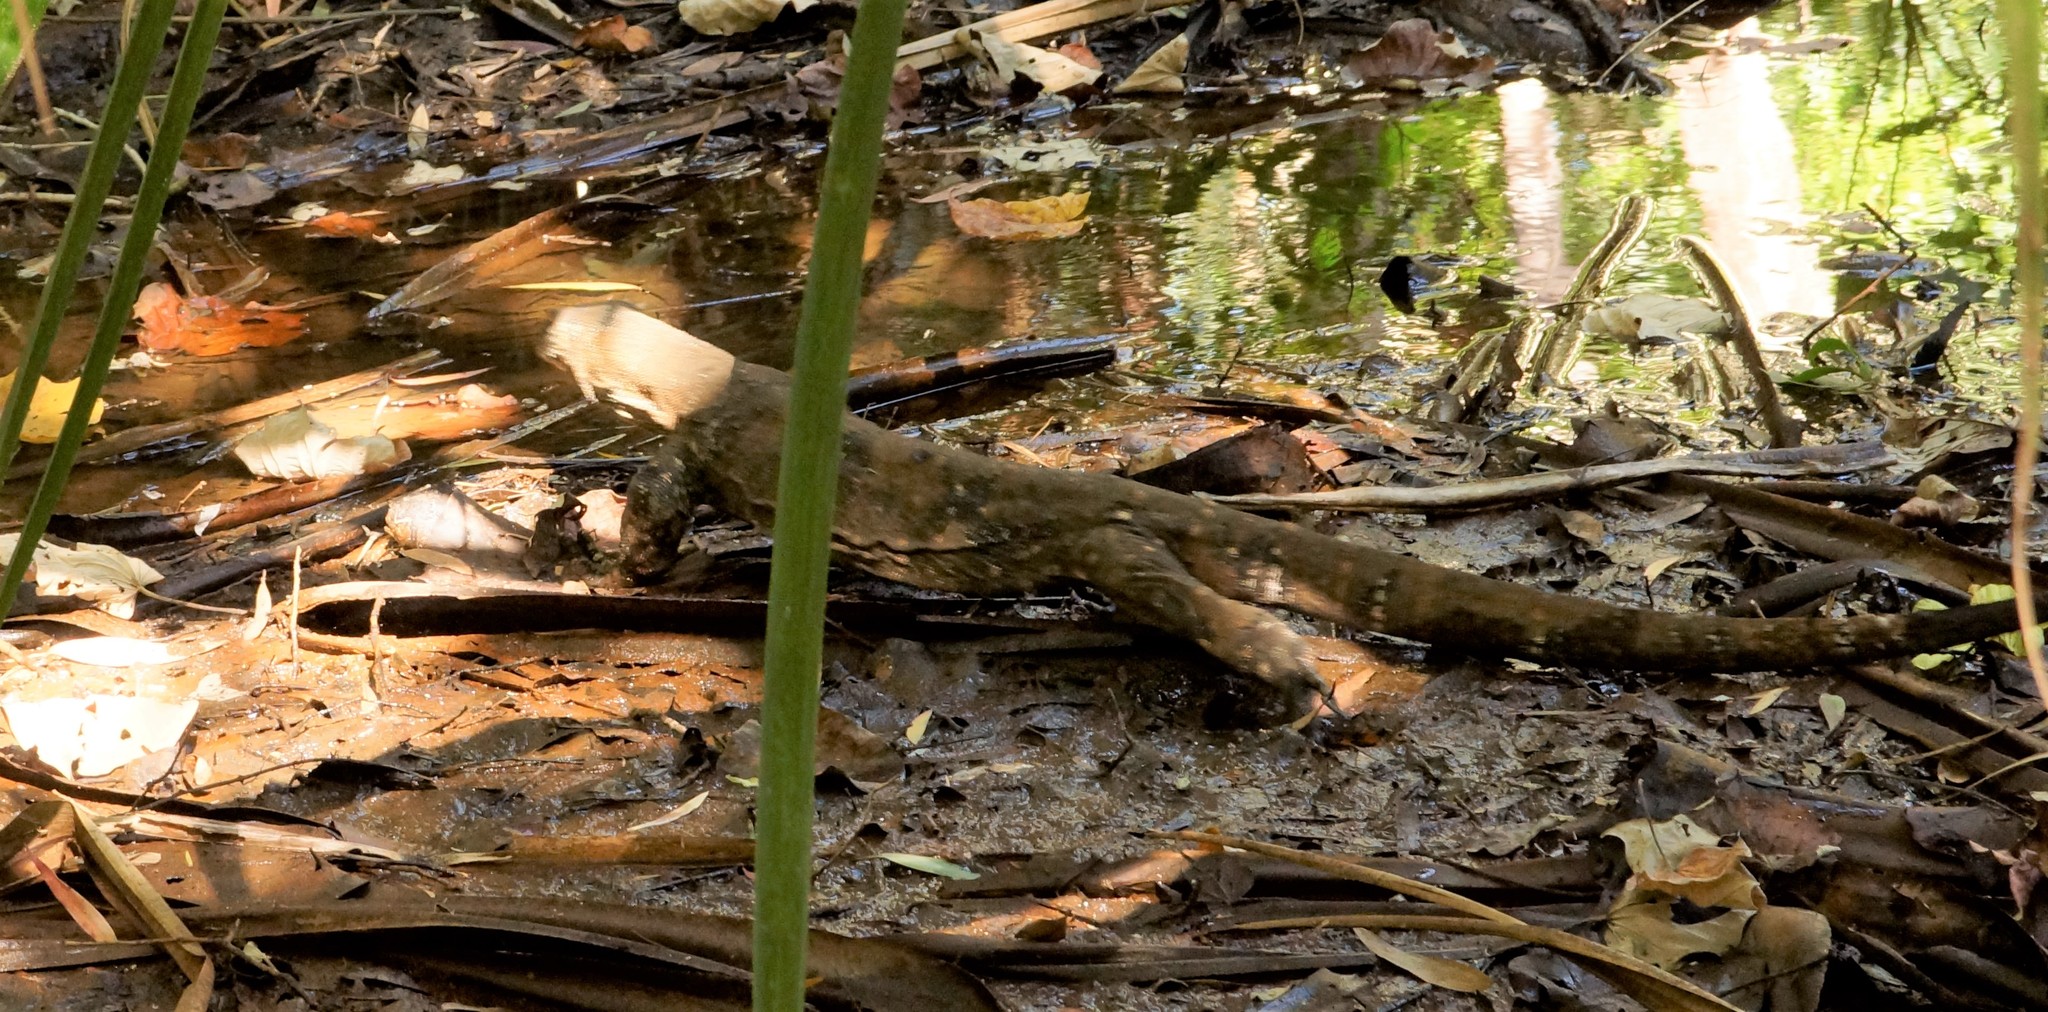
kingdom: Animalia
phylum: Chordata
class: Squamata
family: Varanidae
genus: Varanus
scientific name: Varanus varius
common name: Lace monitor
